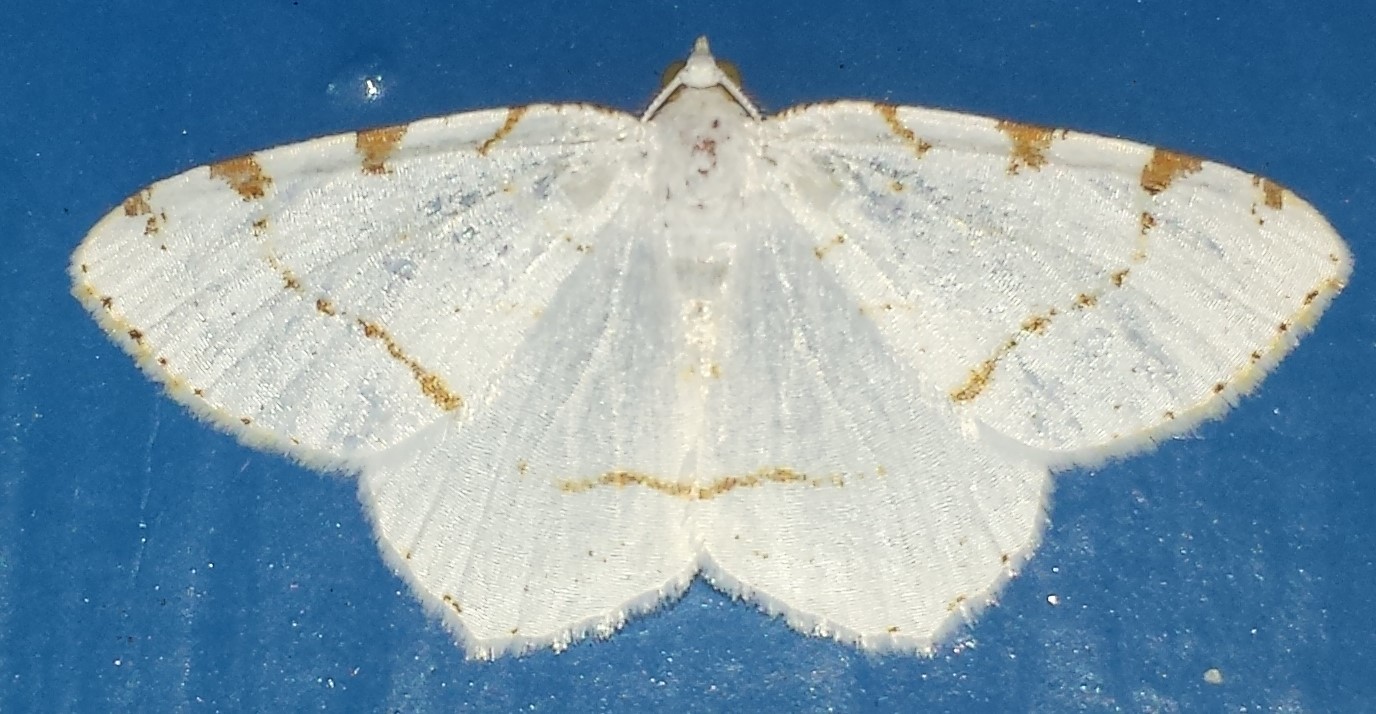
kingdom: Animalia
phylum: Arthropoda
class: Insecta
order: Lepidoptera
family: Geometridae
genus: Macaria
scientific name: Macaria pustularia
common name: Lesser maple spanworm moth
